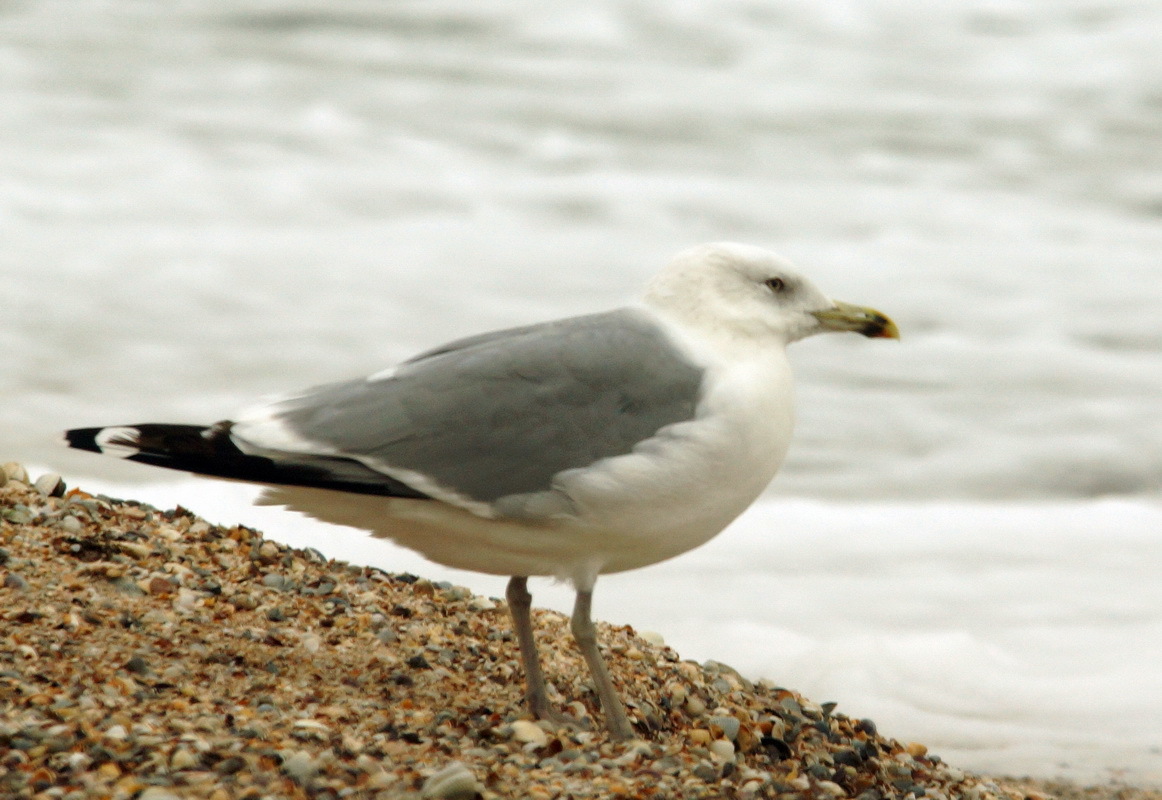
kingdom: Animalia
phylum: Chordata
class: Aves
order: Charadriiformes
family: Laridae
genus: Larus
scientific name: Larus michahellis
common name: Yellow-legged gull
